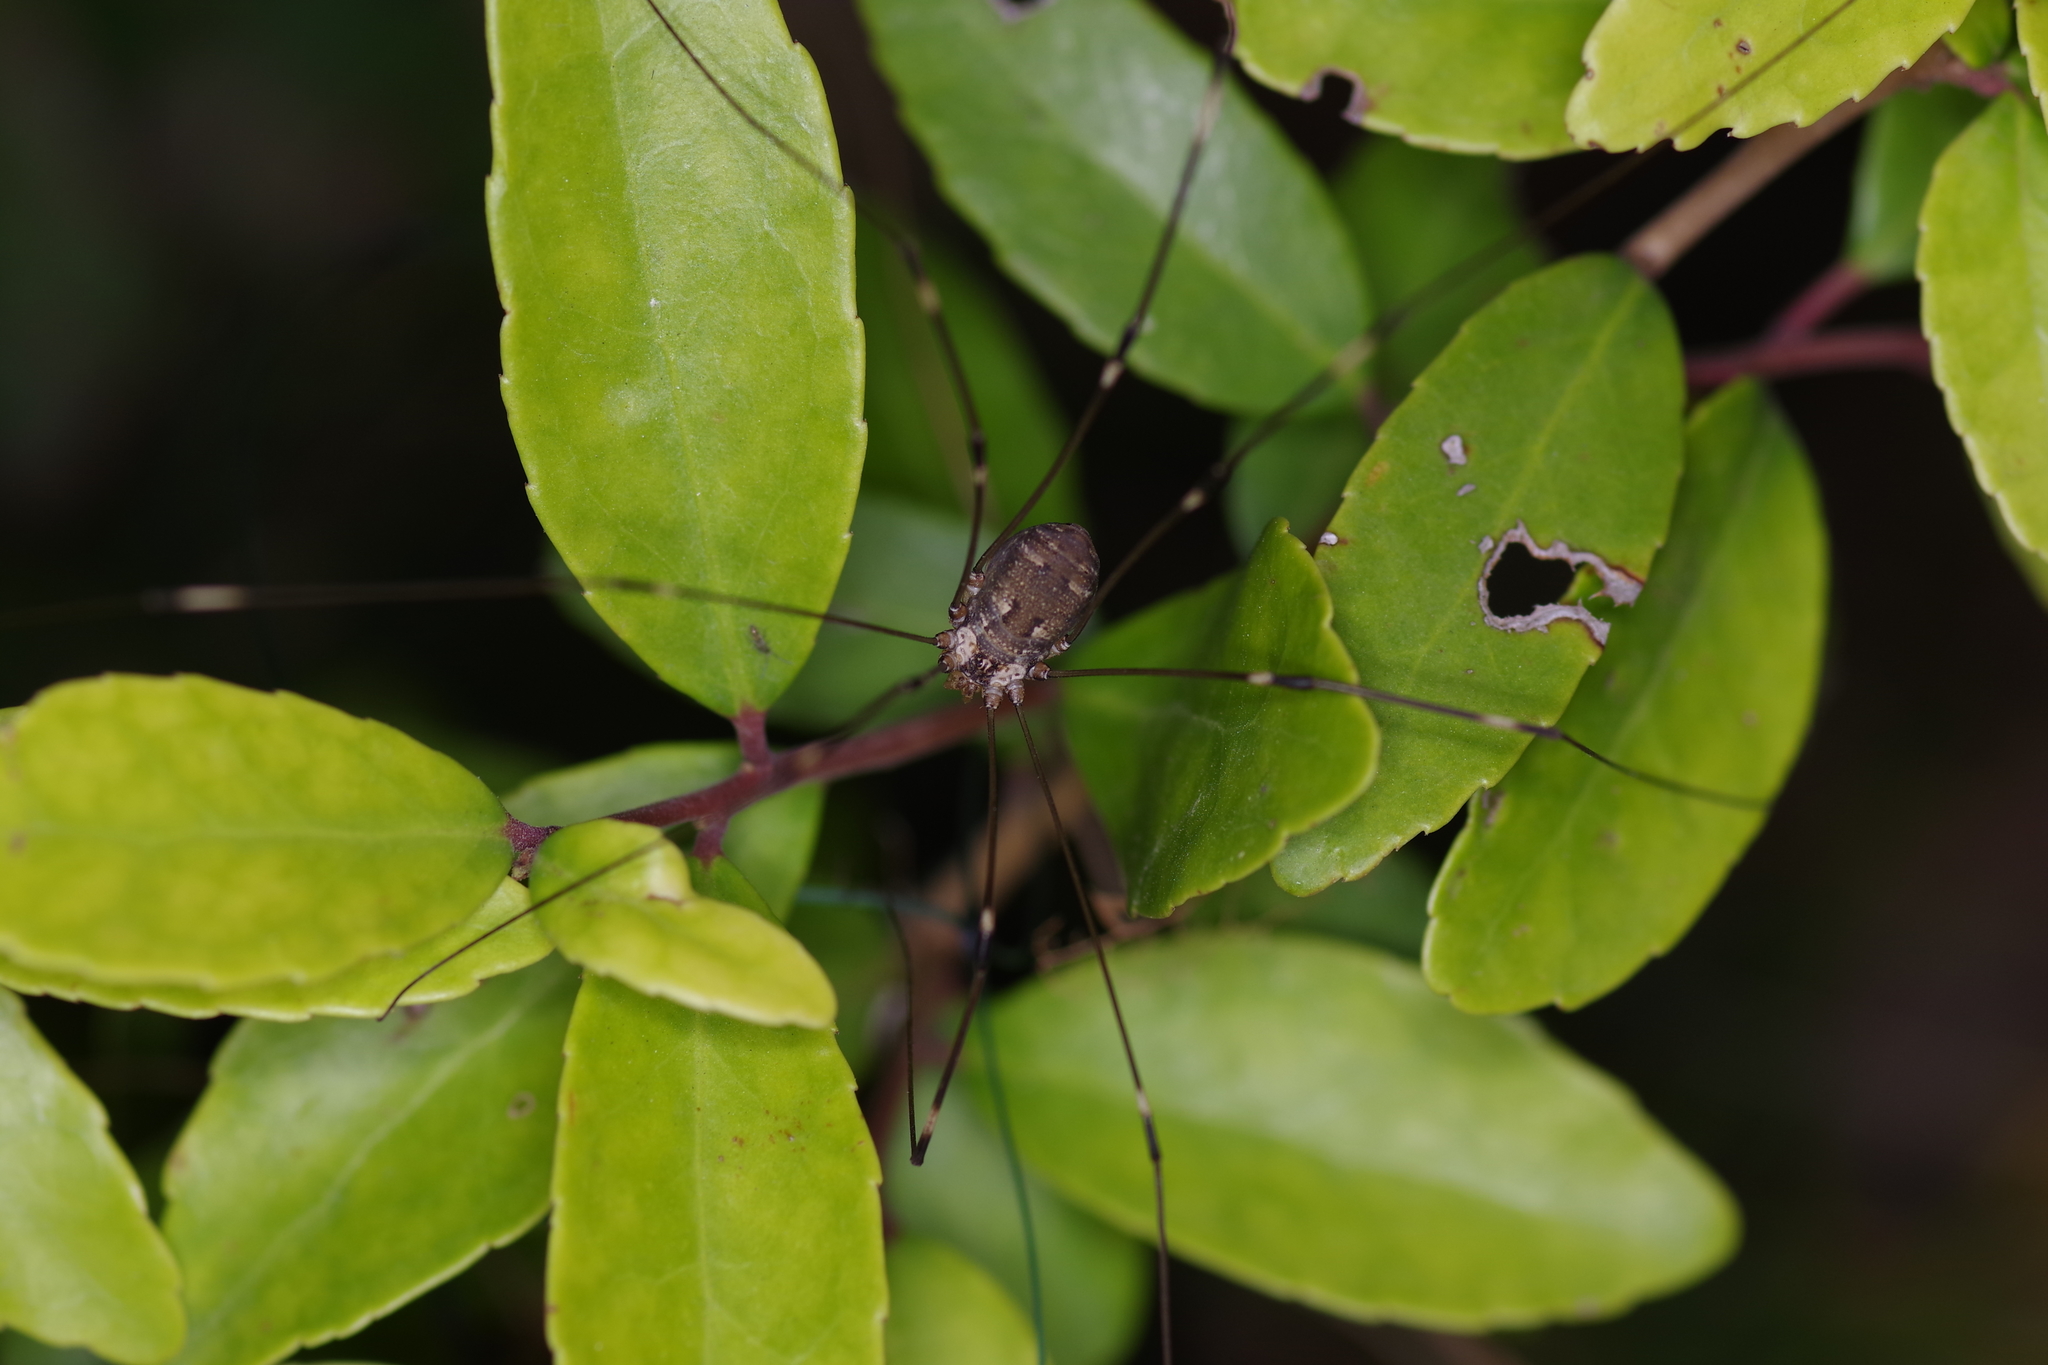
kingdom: Animalia
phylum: Arthropoda
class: Arachnida
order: Opiliones
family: Sclerosomatidae
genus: Leiobunum
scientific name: Leiobunum townsendi
